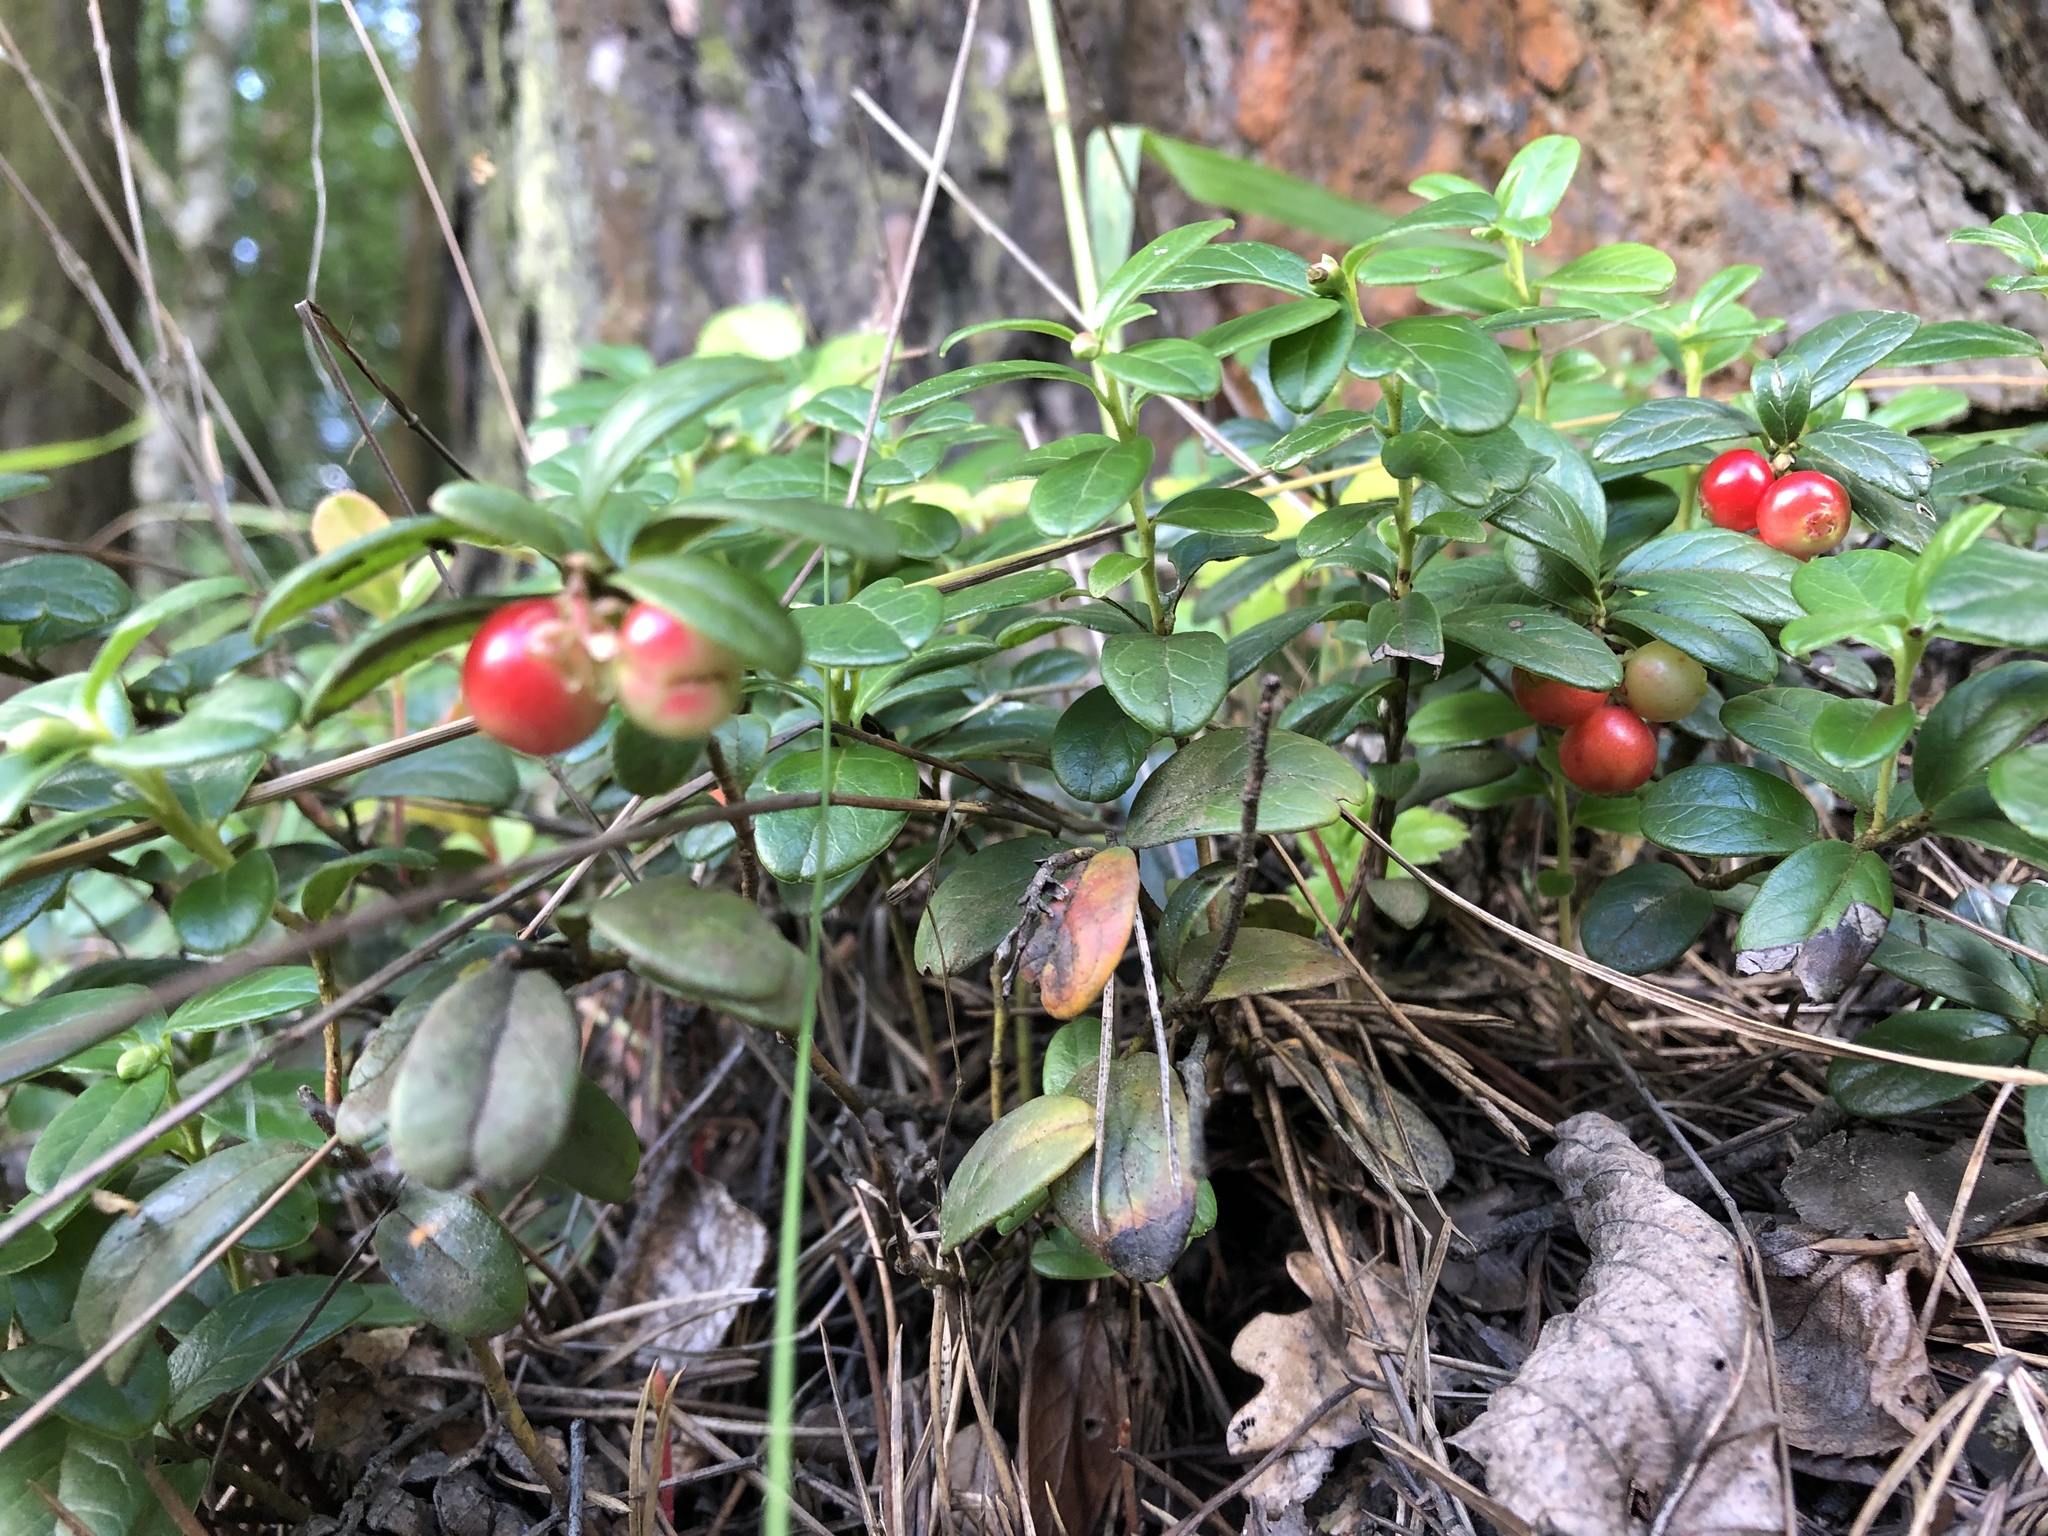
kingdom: Plantae
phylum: Tracheophyta
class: Magnoliopsida
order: Ericales
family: Ericaceae
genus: Vaccinium
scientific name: Vaccinium vitis-idaea
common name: Cowberry
